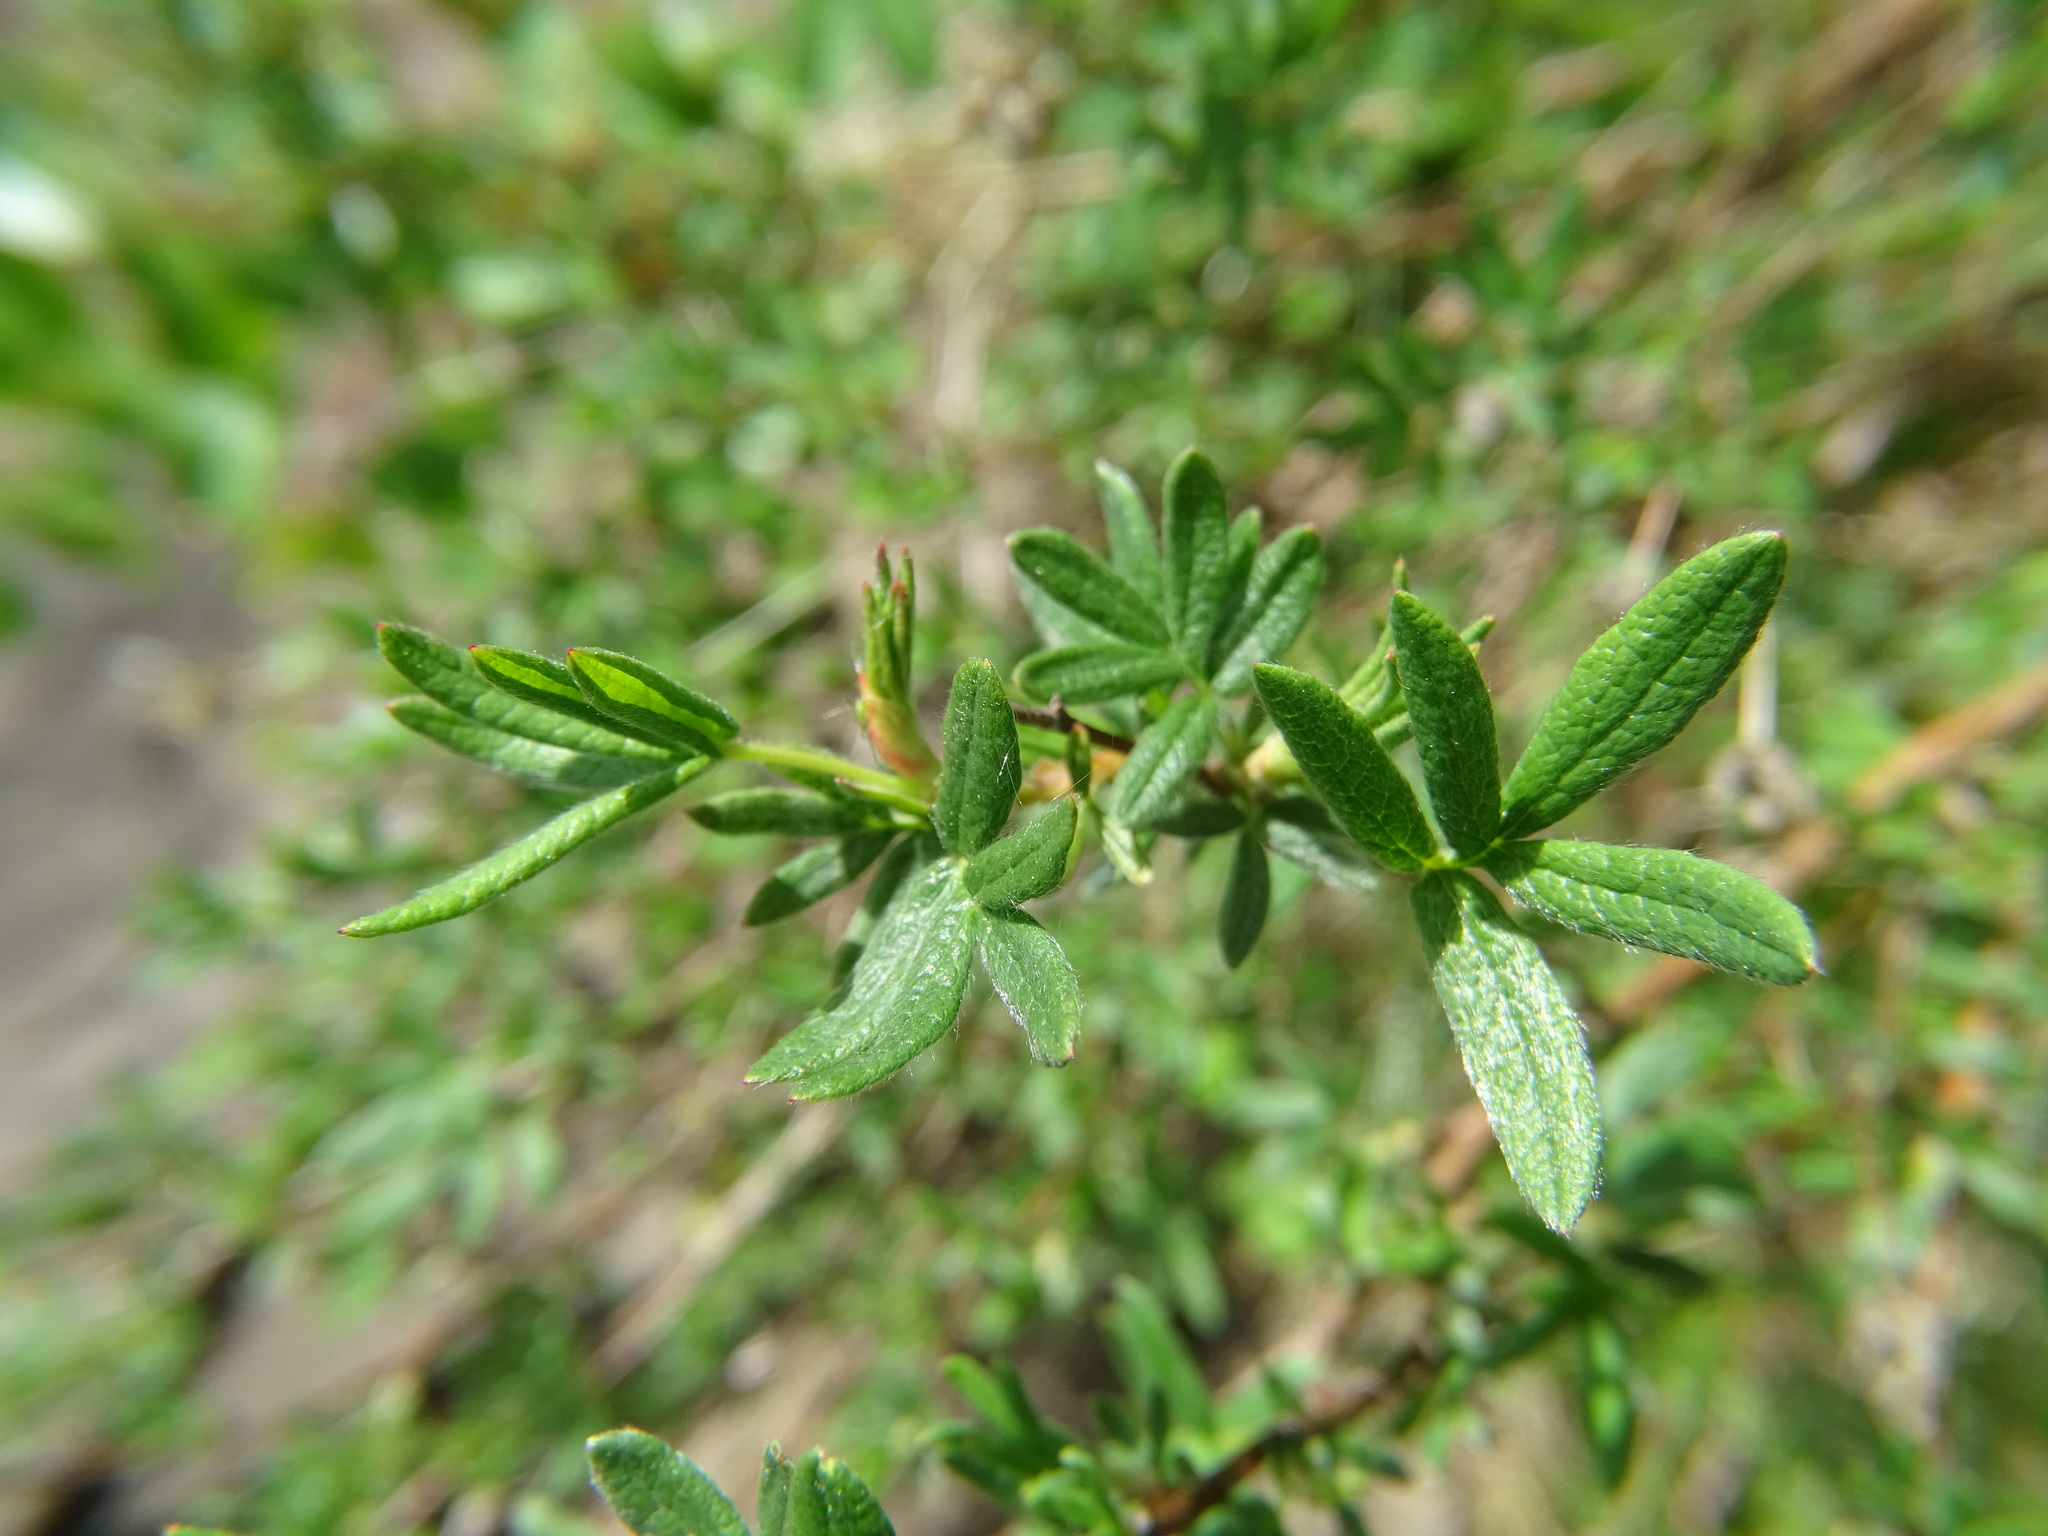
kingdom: Plantae
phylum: Tracheophyta
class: Magnoliopsida
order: Rosales
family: Rosaceae
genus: Dasiphora
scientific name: Dasiphora fruticosa
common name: Shrubby cinquefoil
